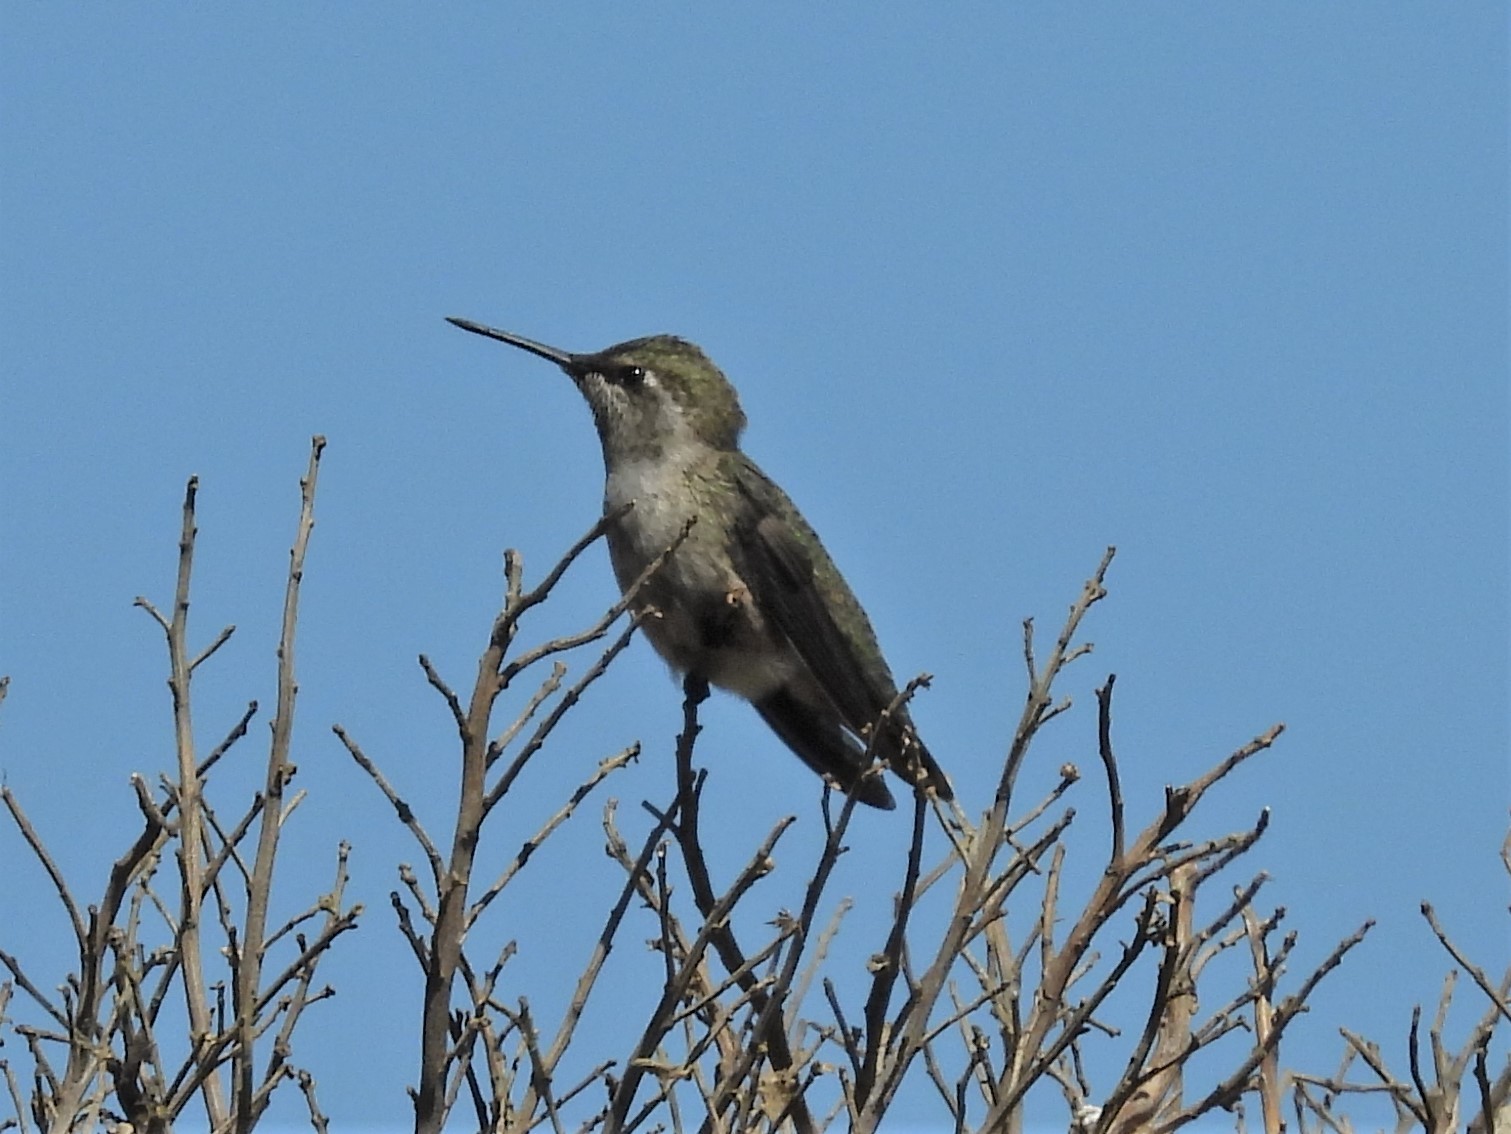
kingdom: Animalia
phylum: Chordata
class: Aves
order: Apodiformes
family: Trochilidae
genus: Calypte
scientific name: Calypte anna
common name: Anna's hummingbird
